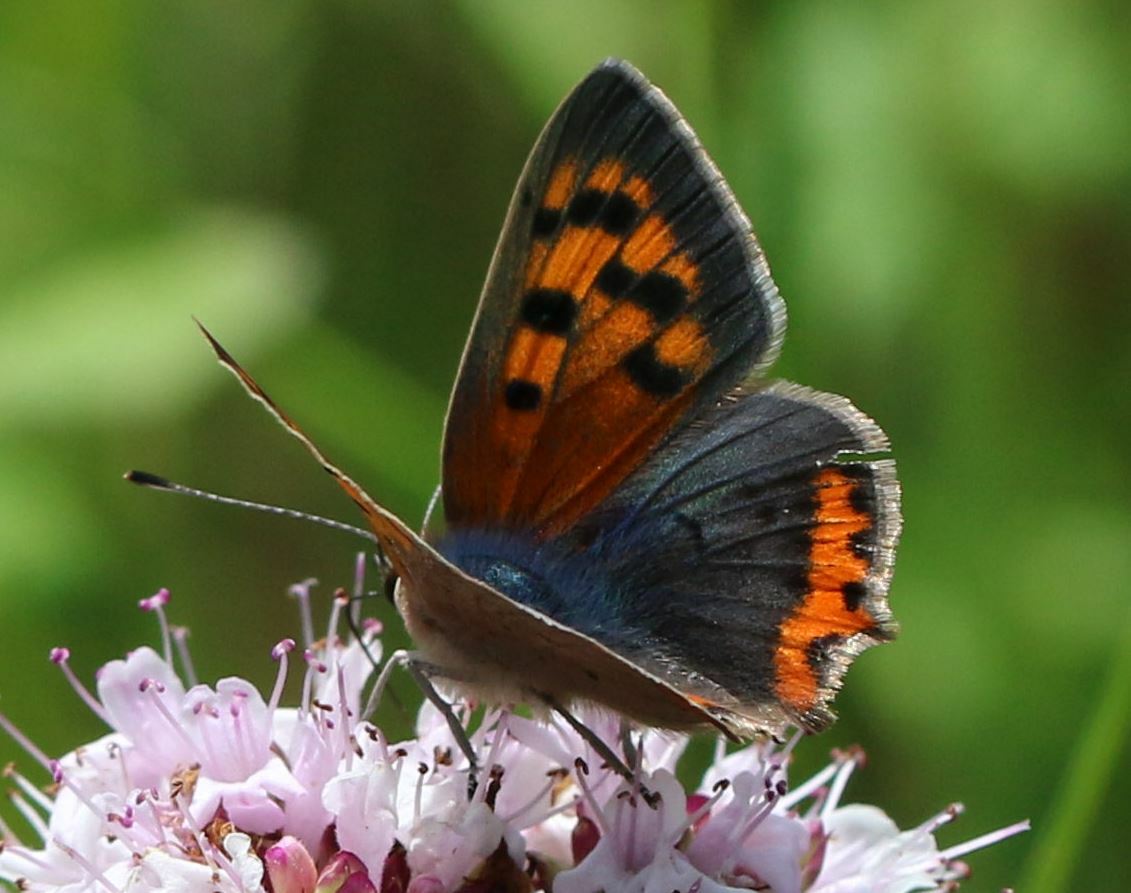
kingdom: Animalia
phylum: Arthropoda
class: Insecta
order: Lepidoptera
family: Lycaenidae
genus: Lycaena
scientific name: Lycaena phlaeas
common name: Small copper
